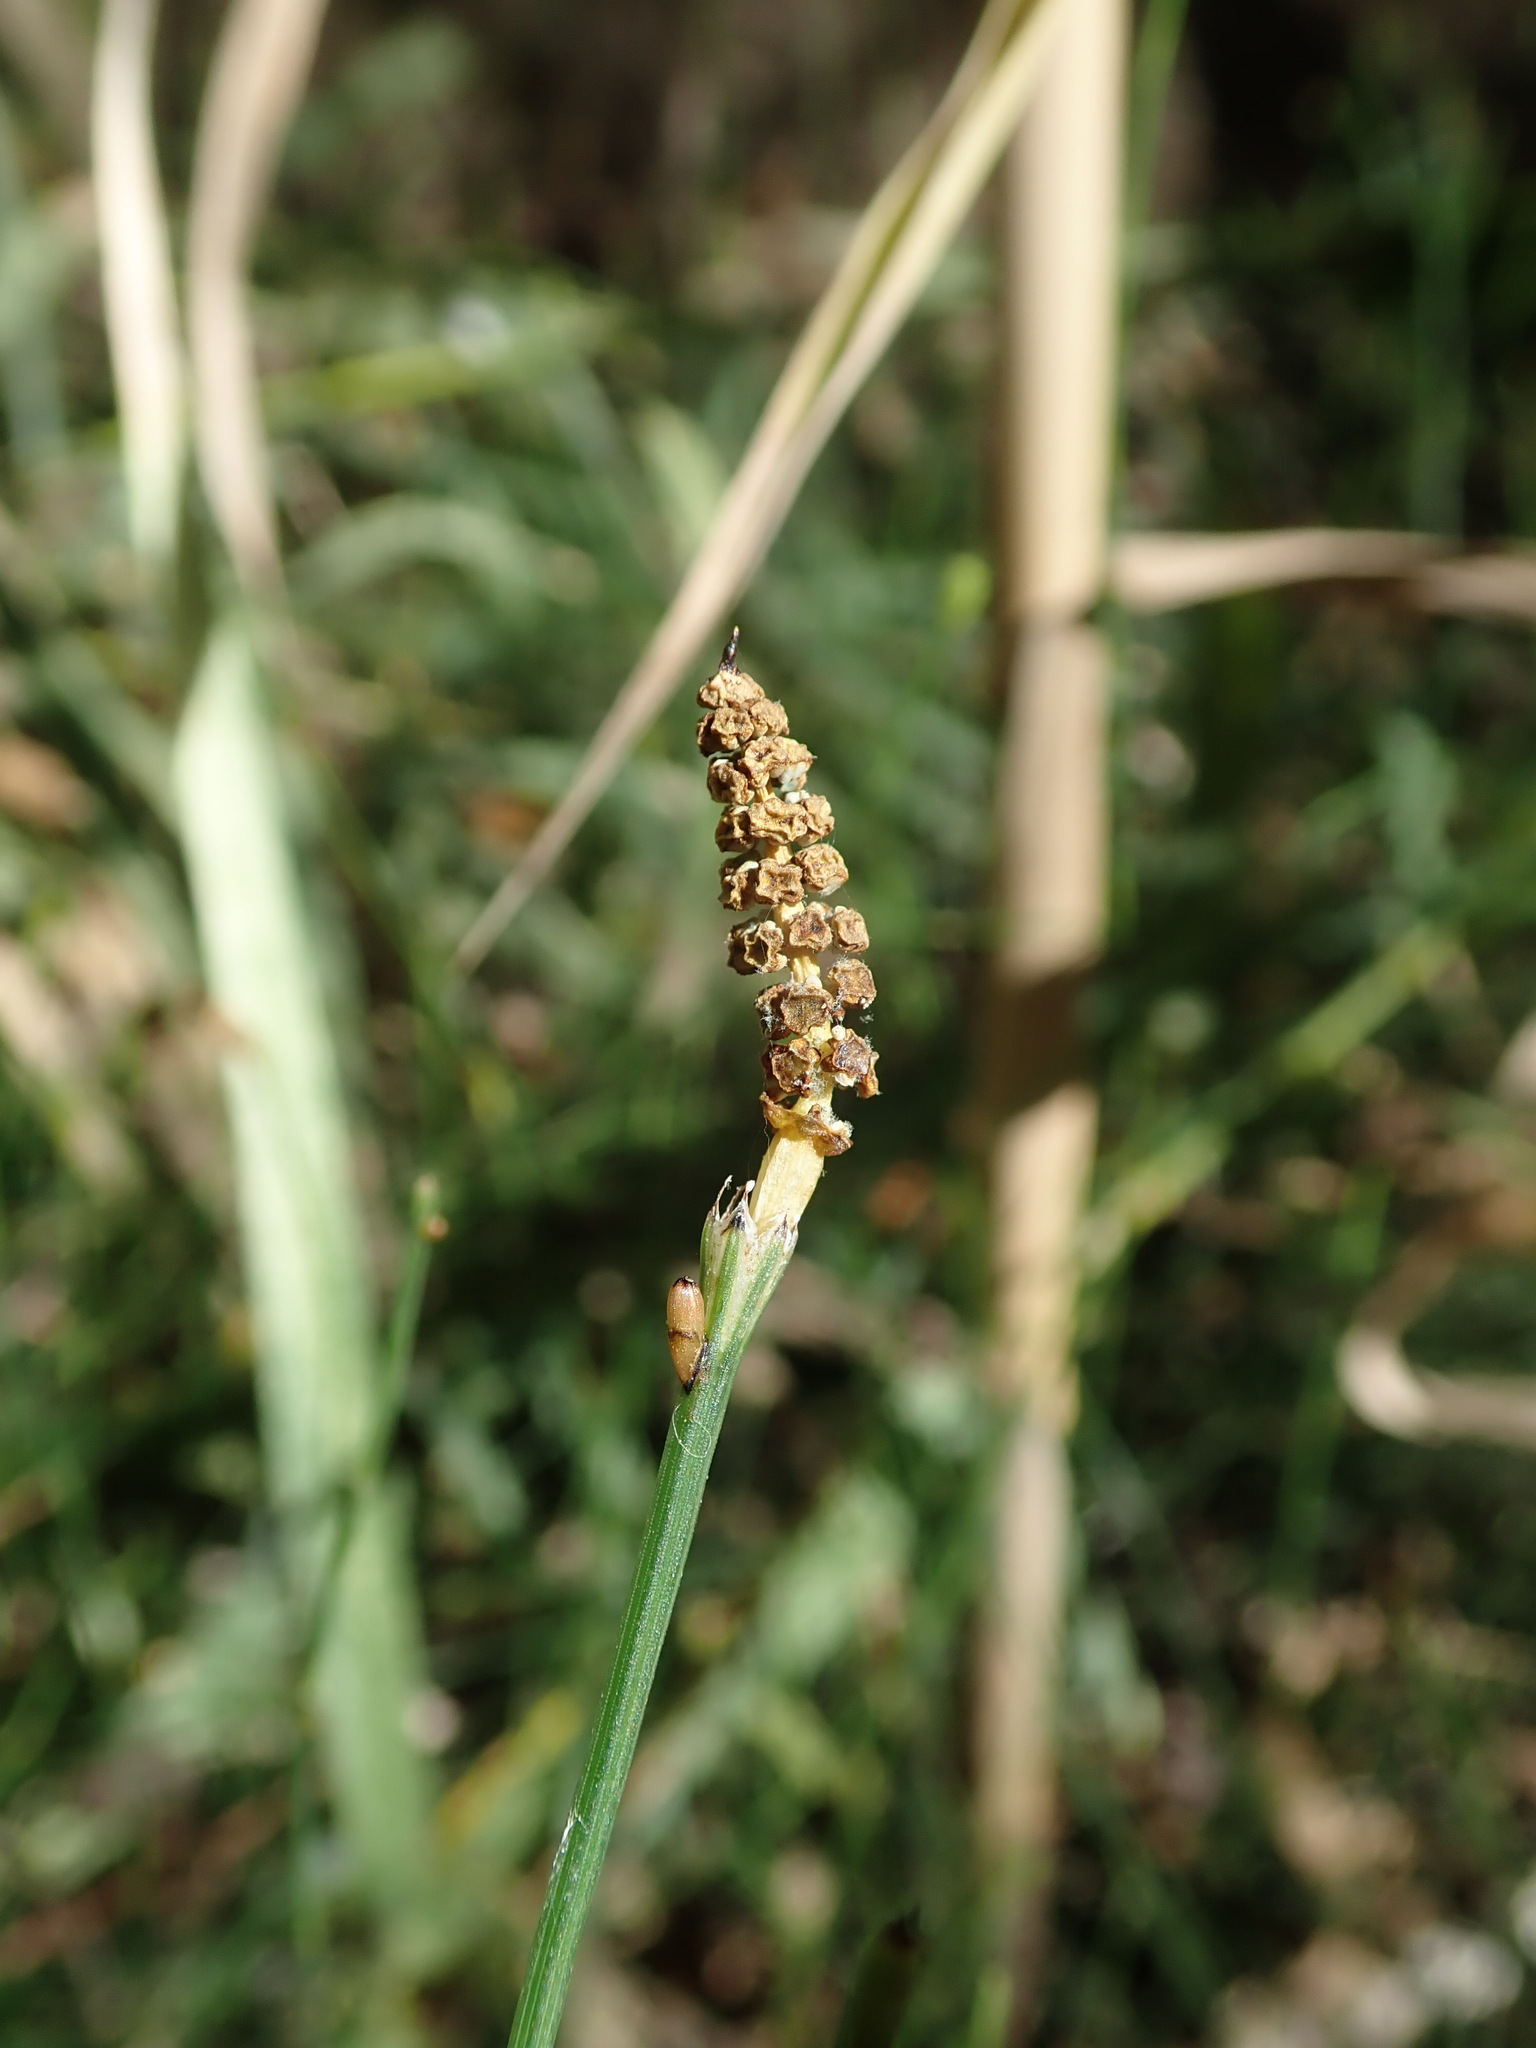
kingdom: Plantae
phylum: Tracheophyta
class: Polypodiopsida
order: Equisetales
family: Equisetaceae
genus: Equisetum
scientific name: Equisetum ramosissimum
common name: Branched horsetail
